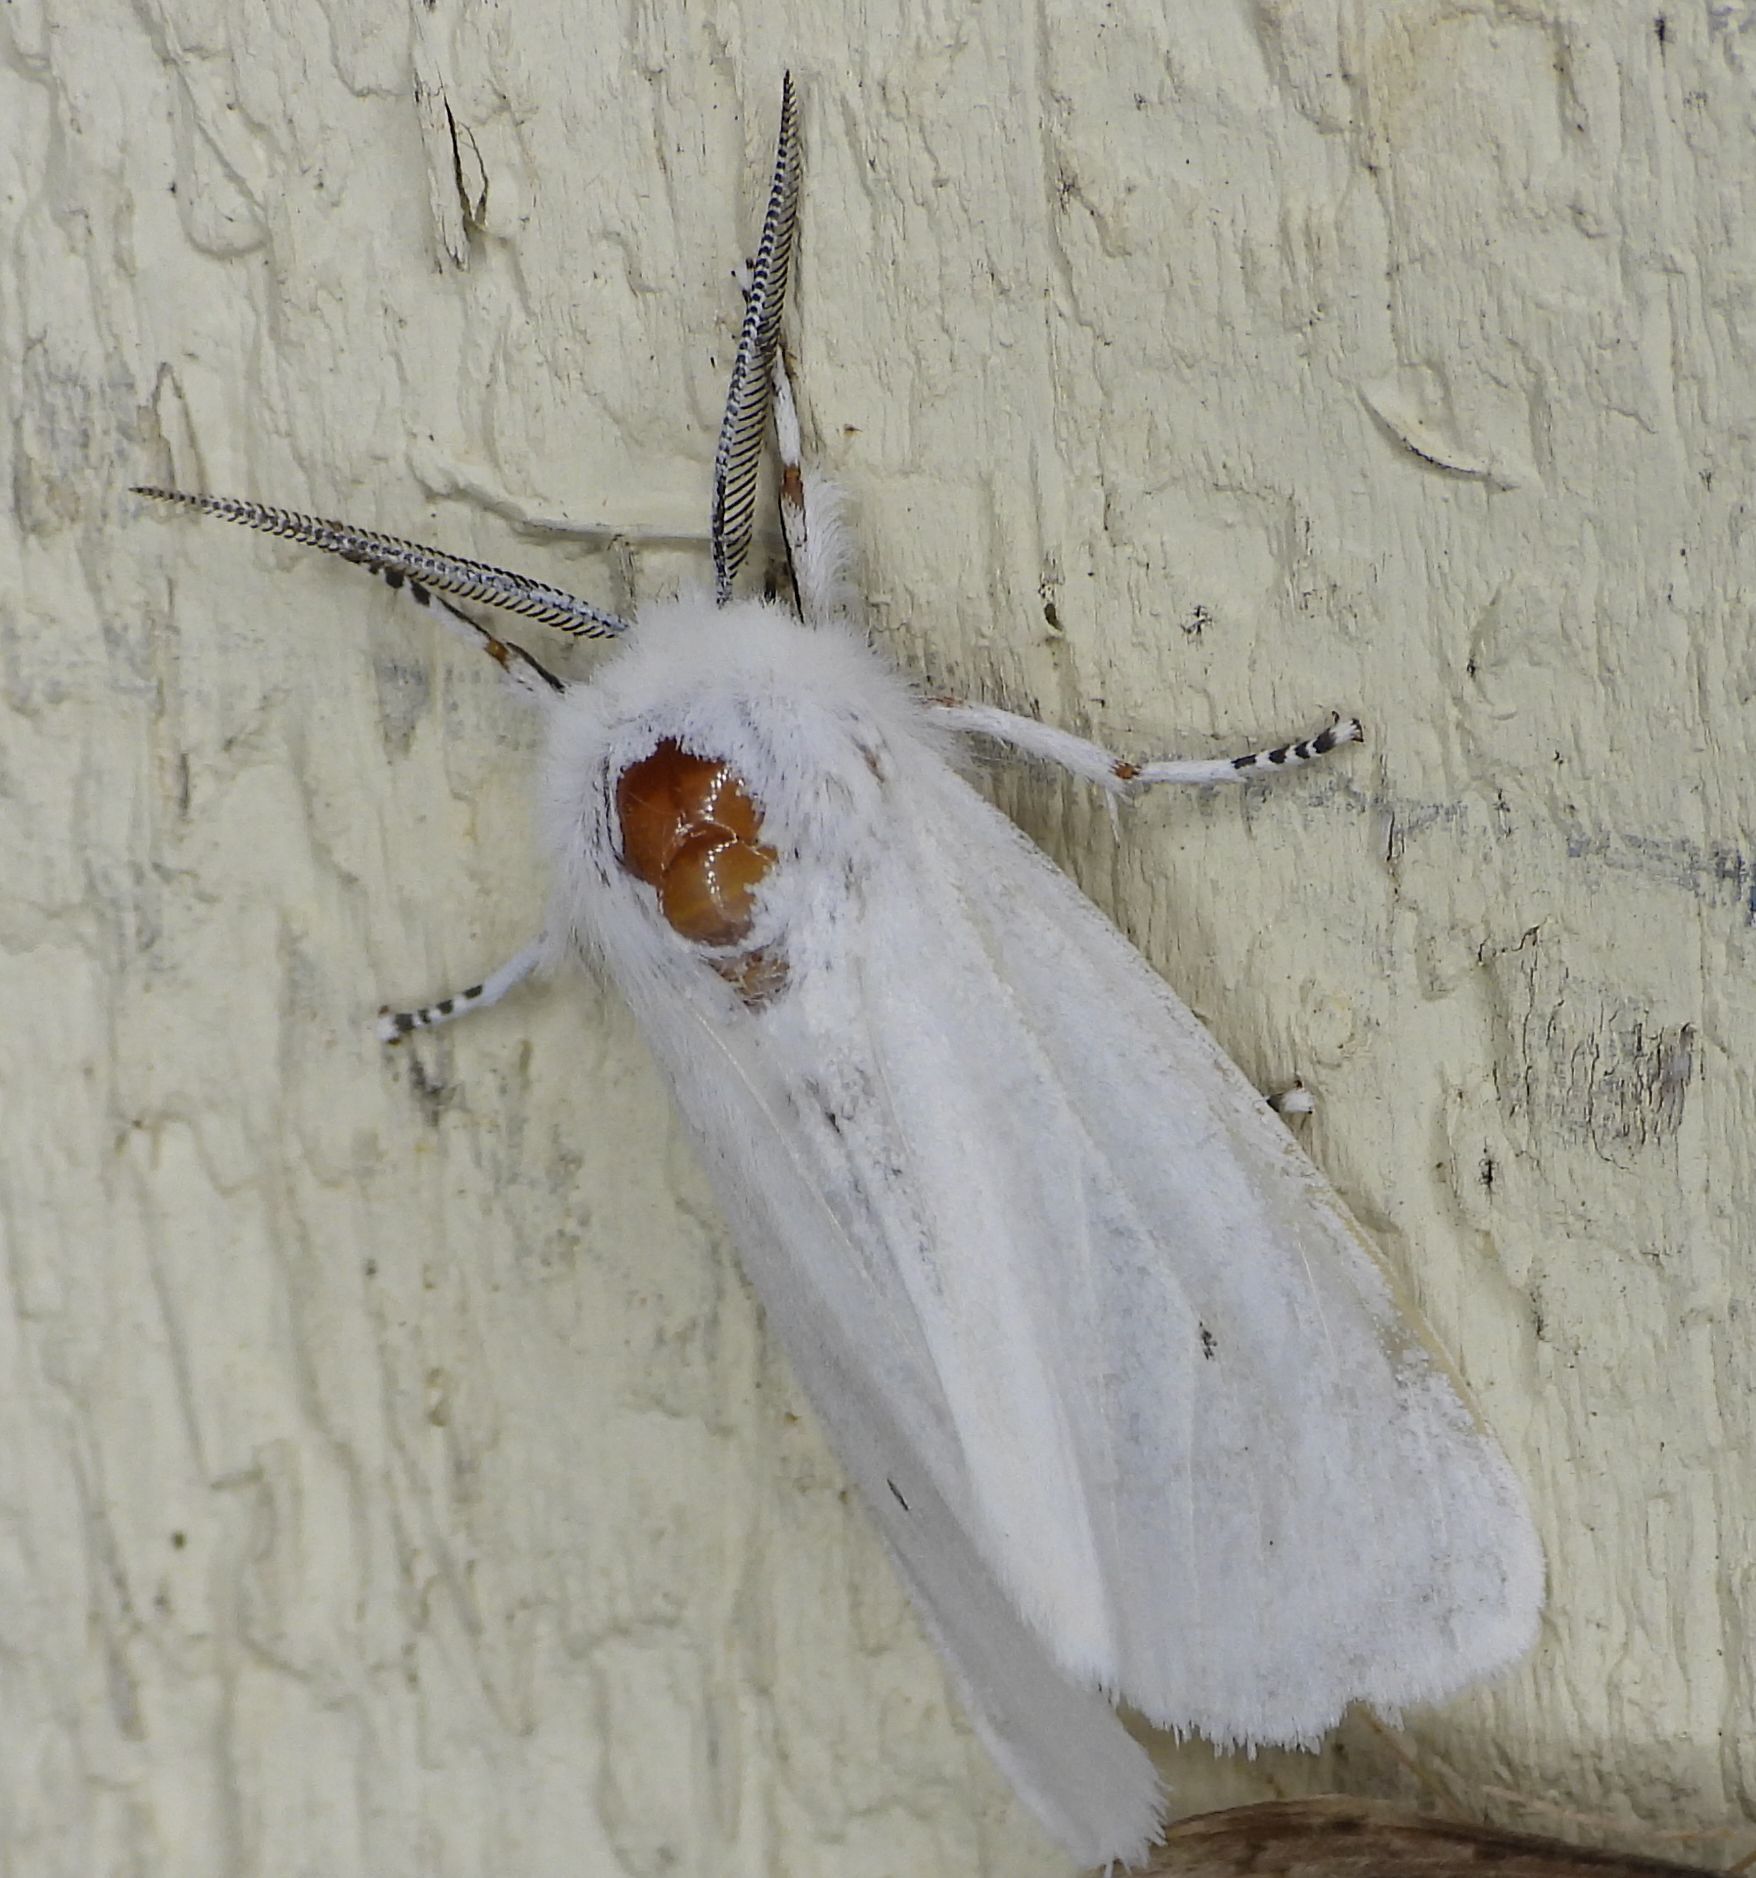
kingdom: Animalia
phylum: Arthropoda
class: Insecta
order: Lepidoptera
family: Erebidae
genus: Spilosoma
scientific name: Spilosoma virginica
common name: Virginia tiger moth
